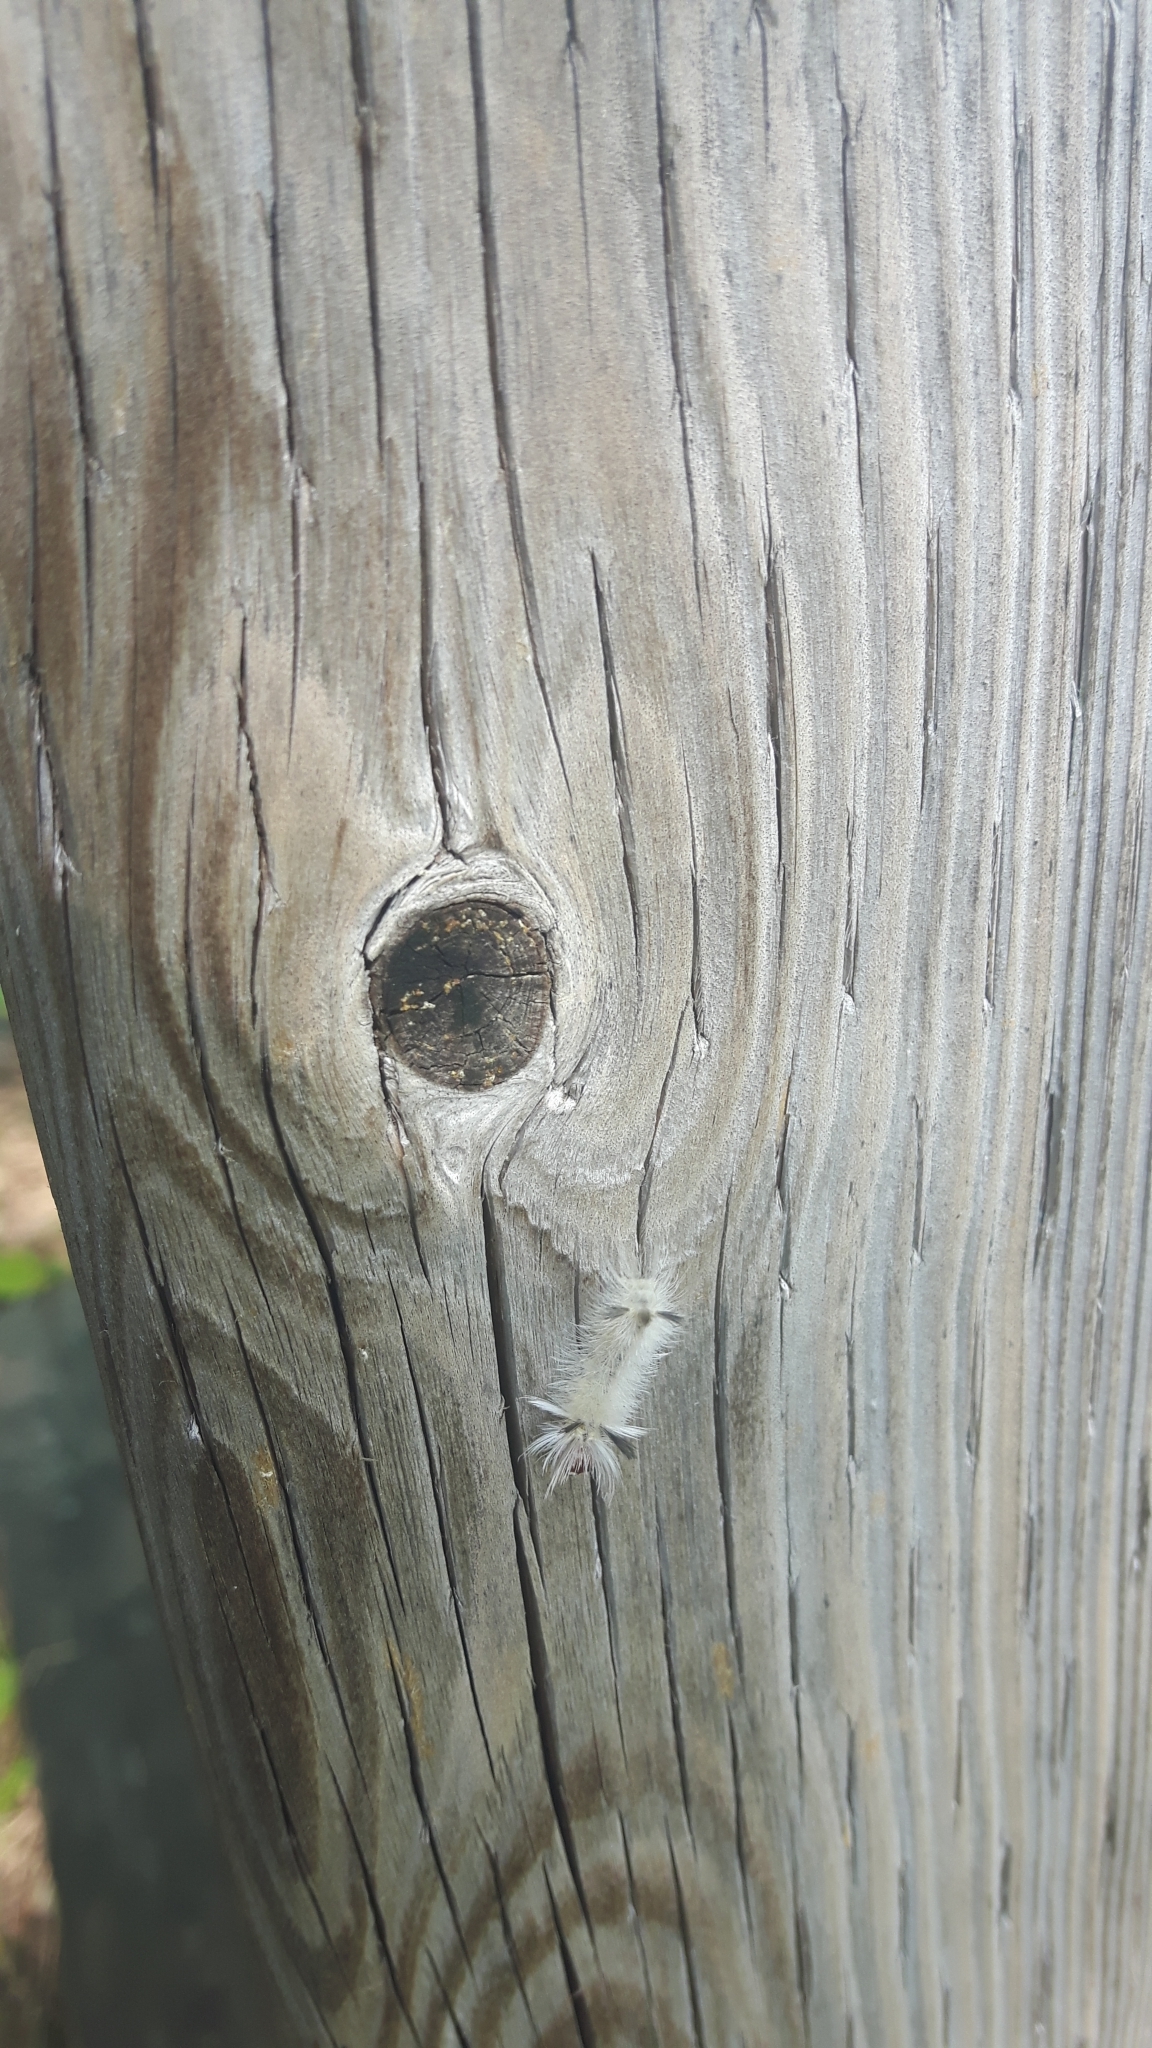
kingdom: Animalia
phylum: Arthropoda
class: Insecta
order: Lepidoptera
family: Erebidae
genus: Lophocampa
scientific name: Lophocampa caryae
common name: Hickory tussock moth
